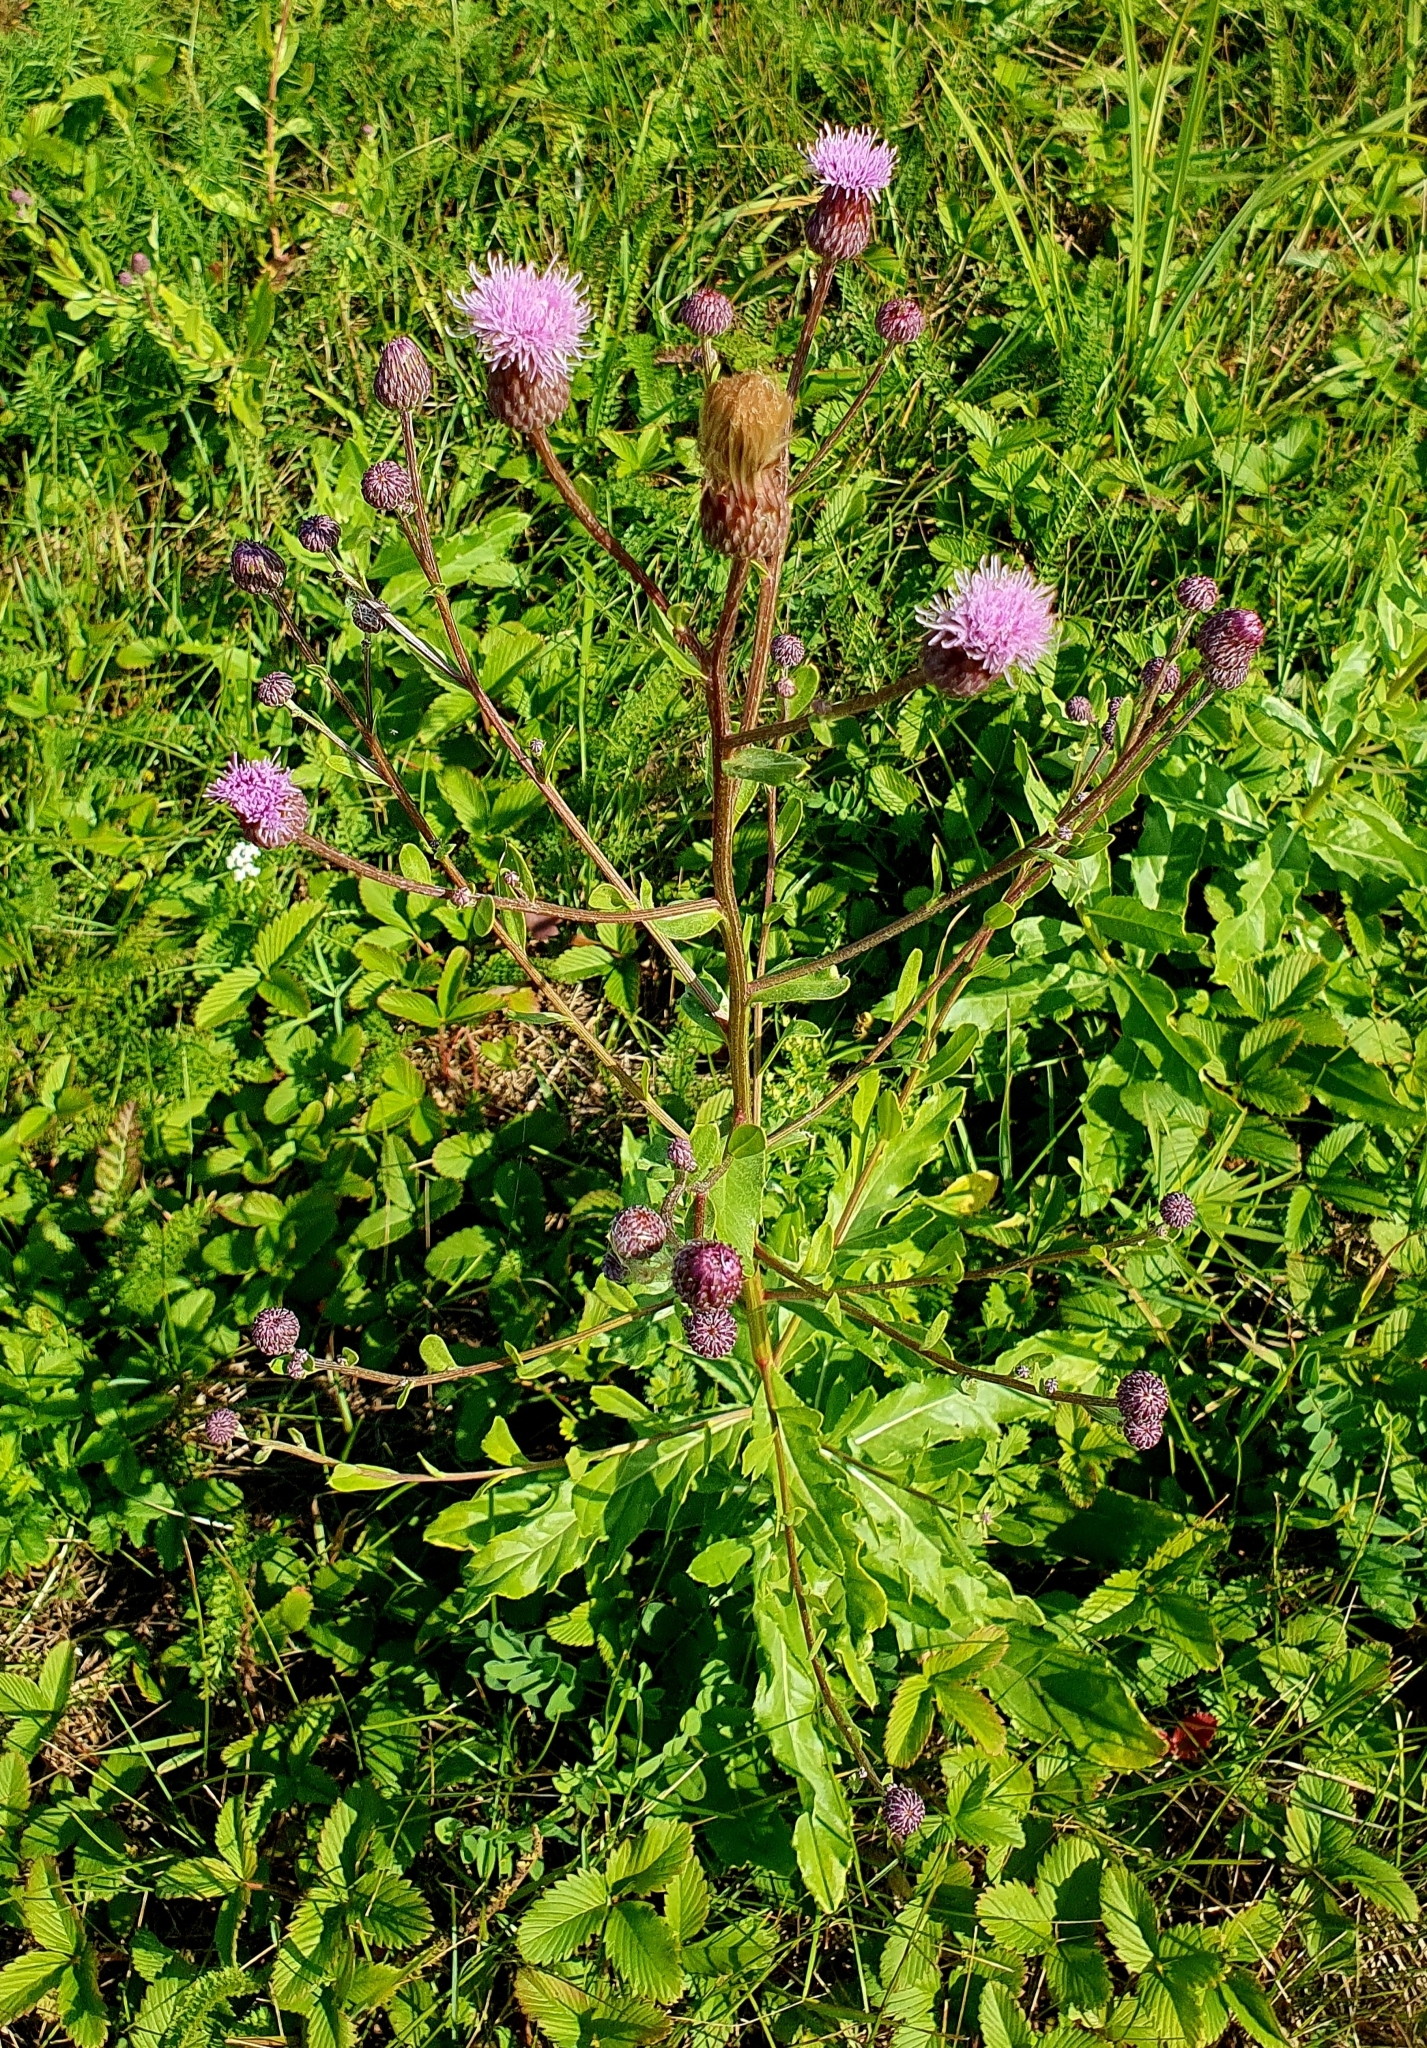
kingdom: Plantae
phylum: Tracheophyta
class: Magnoliopsida
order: Asterales
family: Asteraceae
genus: Cirsium
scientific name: Cirsium arvense
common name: Creeping thistle
